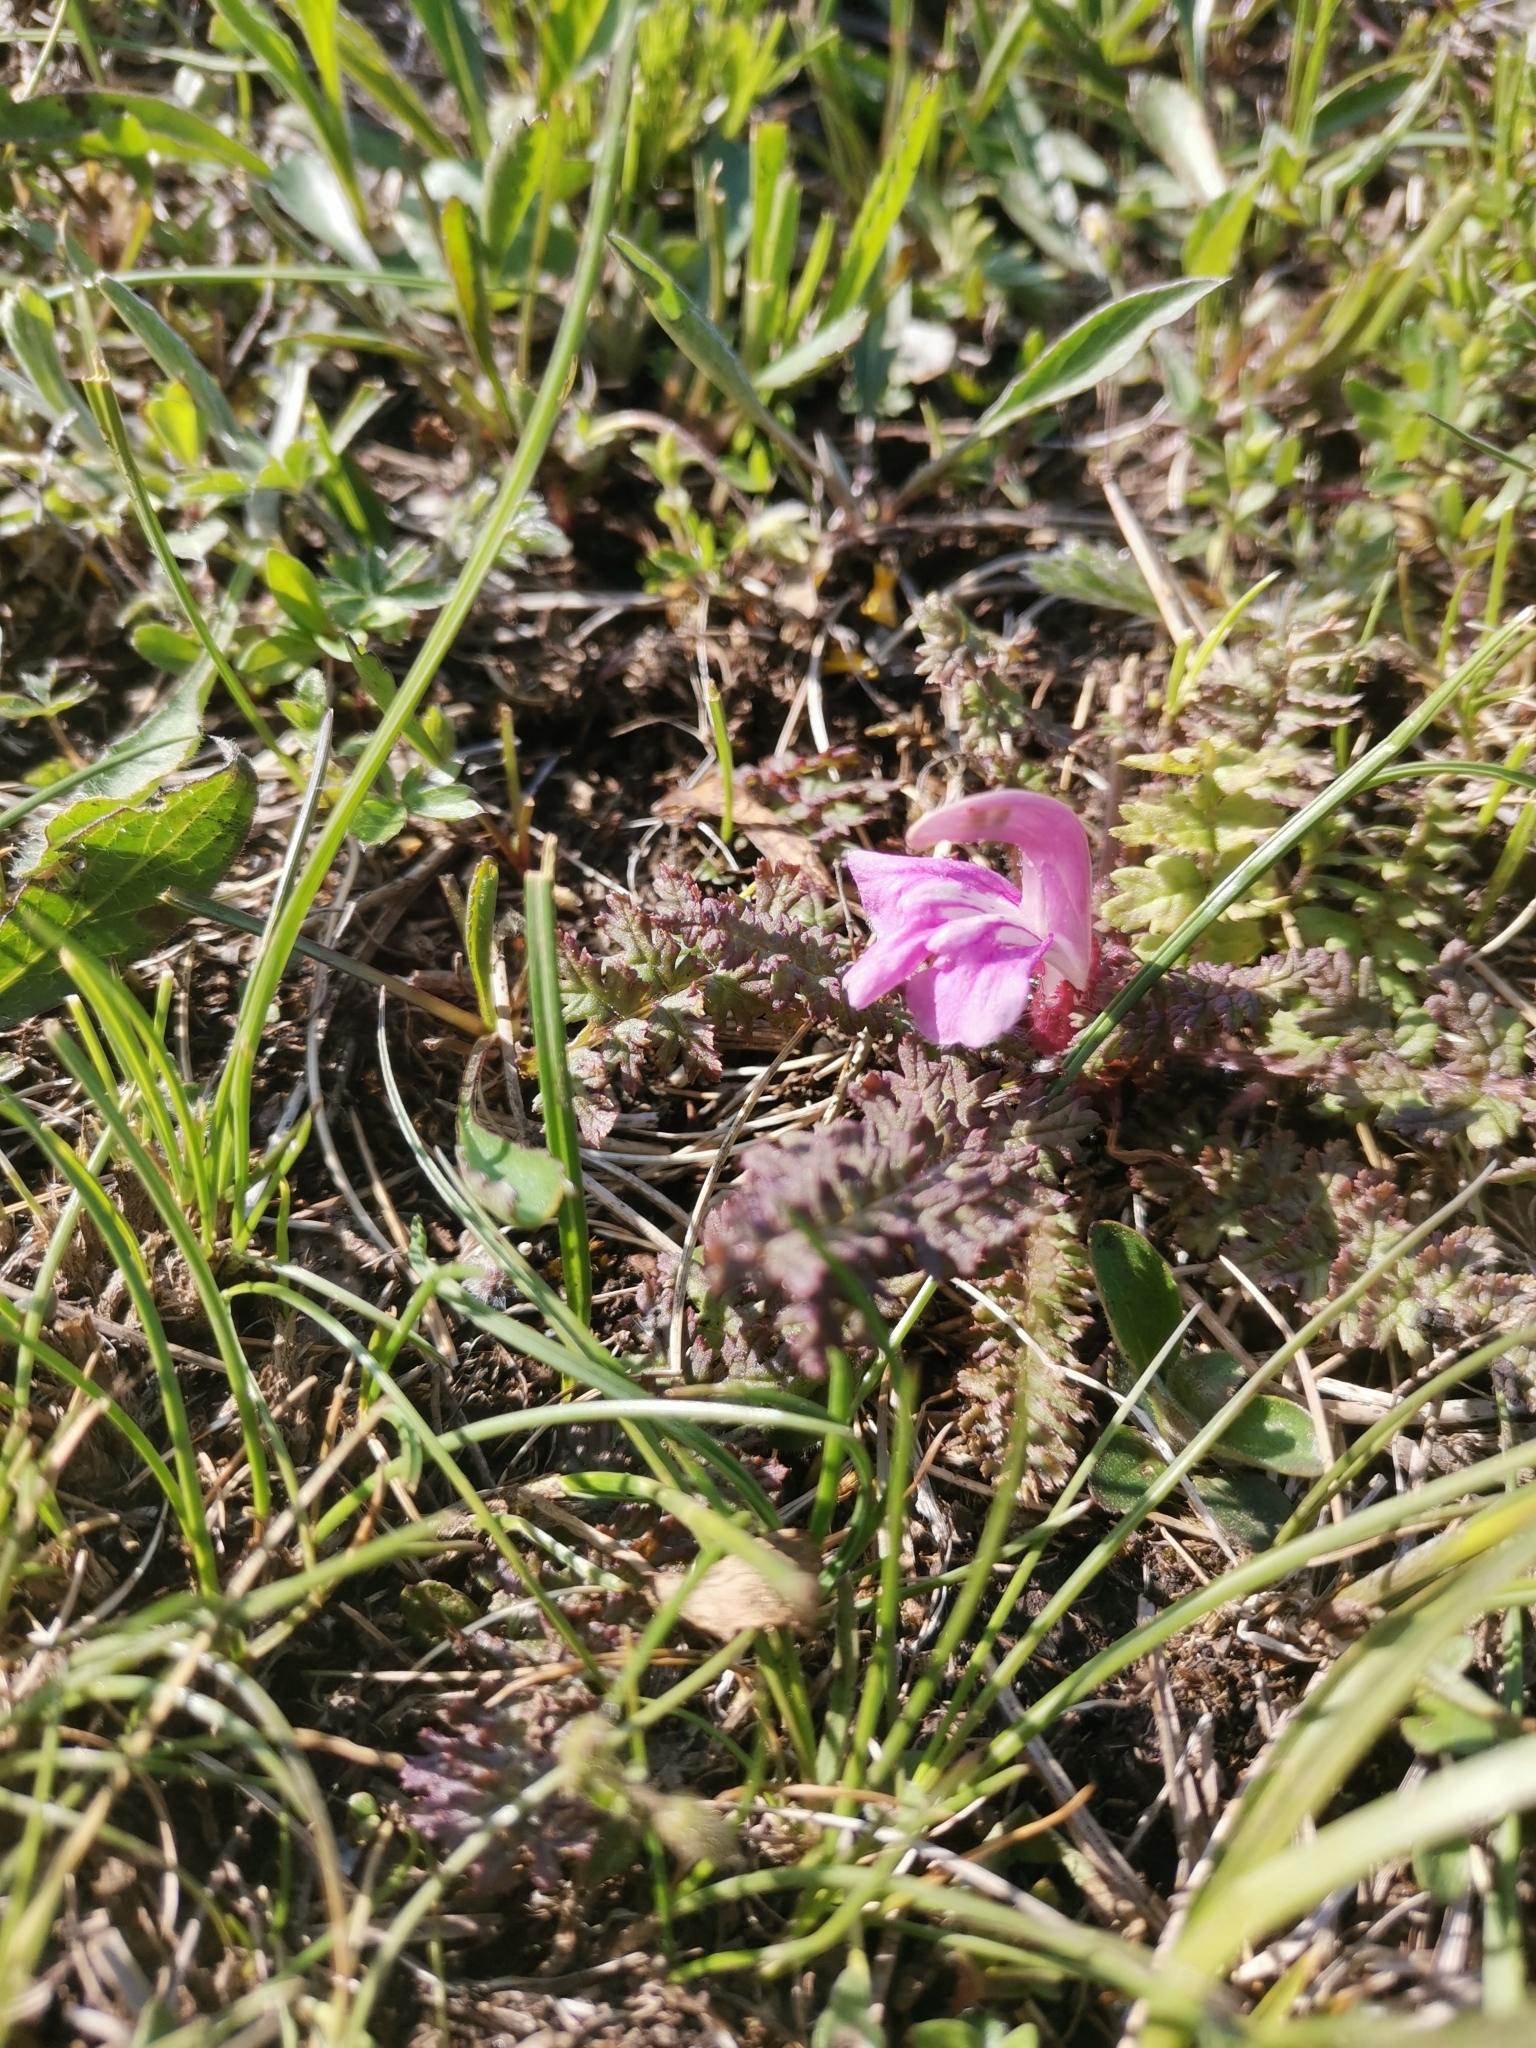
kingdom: Plantae
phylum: Tracheophyta
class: Magnoliopsida
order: Lamiales
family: Orobanchaceae
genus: Pedicularis
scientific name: Pedicularis acaulis
